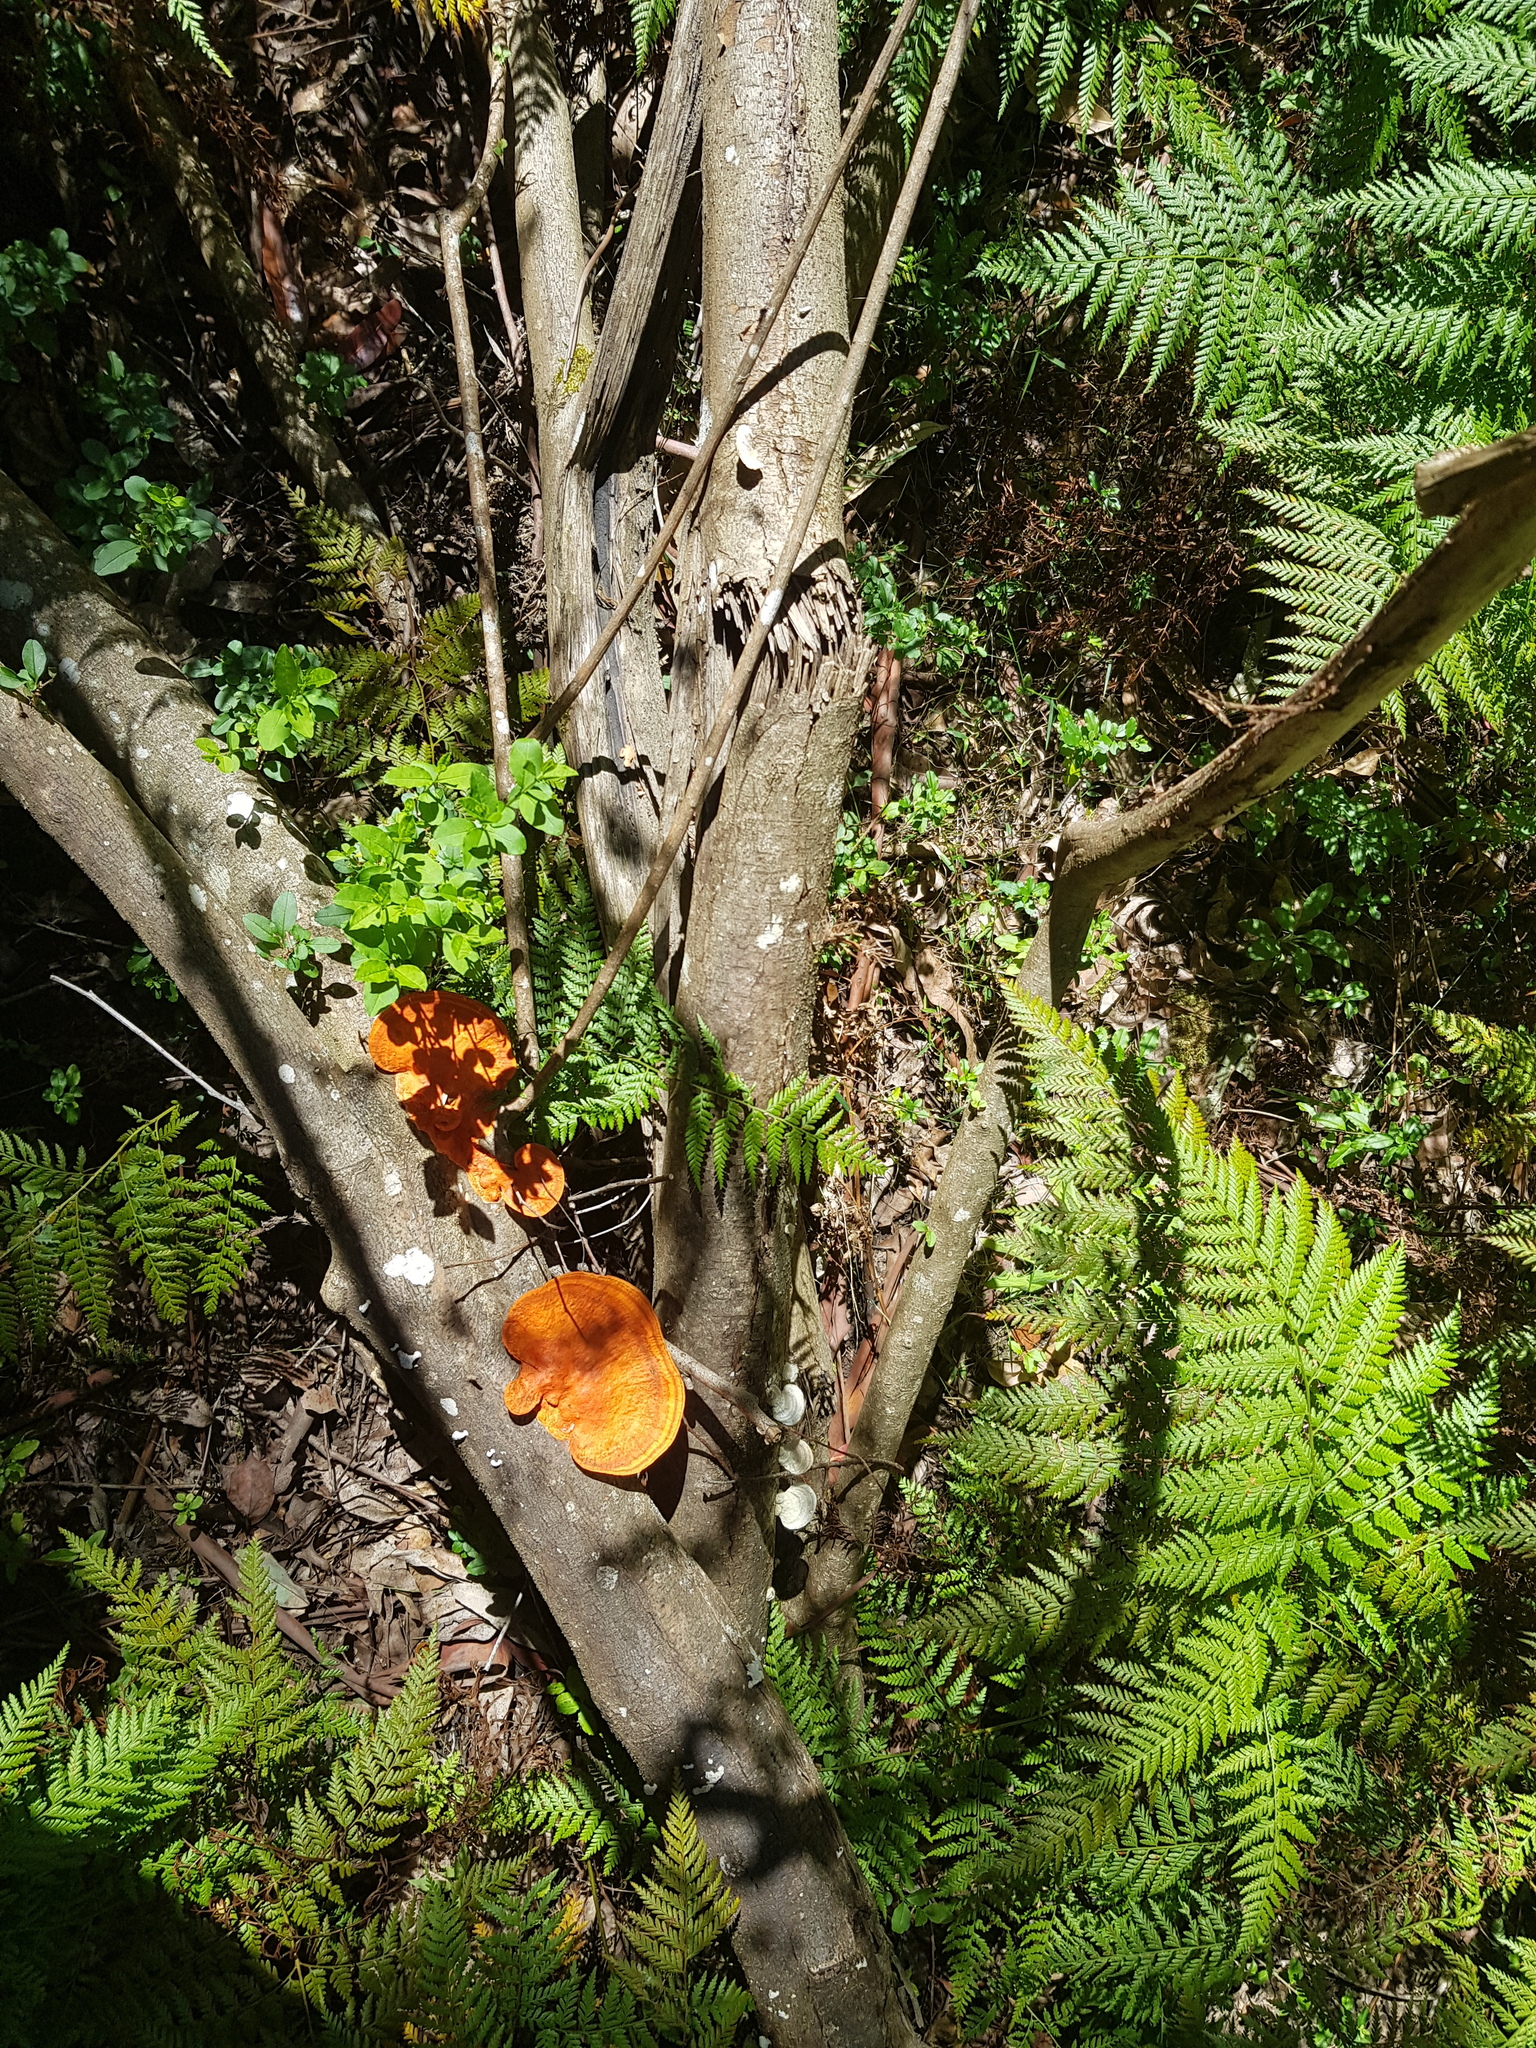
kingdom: Fungi
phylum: Basidiomycota
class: Agaricomycetes
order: Agaricales
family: Schizophyllaceae
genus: Schizophyllum
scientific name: Schizophyllum commune
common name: Common porecrust
